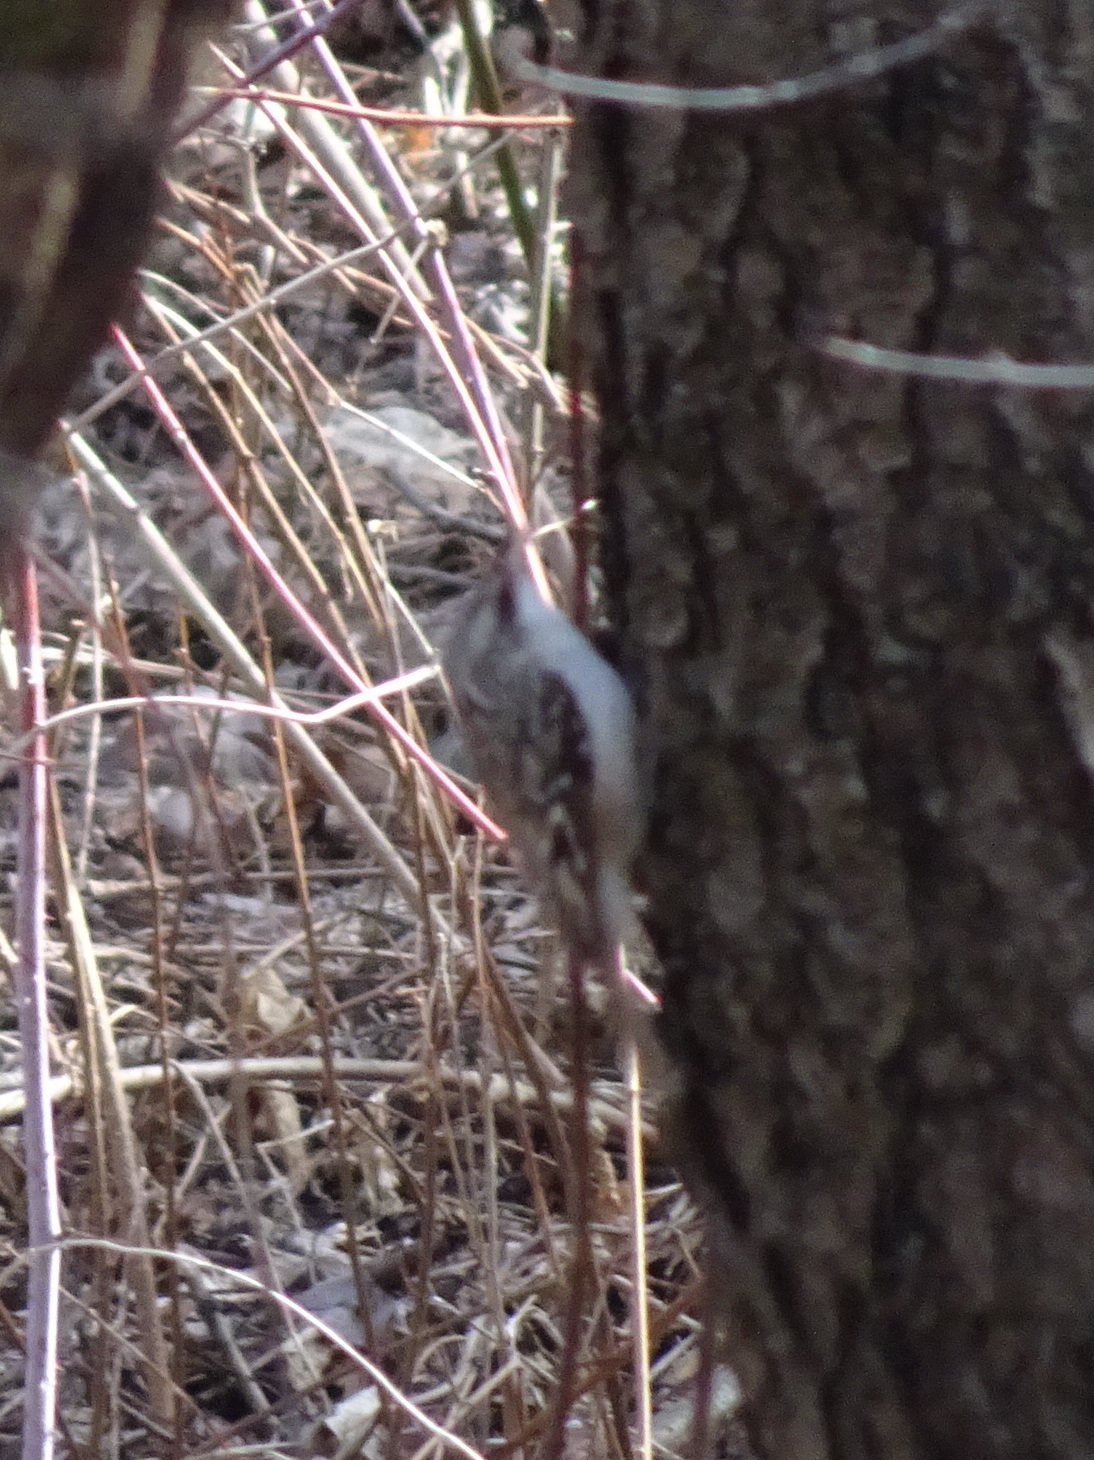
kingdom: Animalia
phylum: Chordata
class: Aves
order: Passeriformes
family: Certhiidae
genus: Certhia
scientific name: Certhia americana
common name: Brown creeper
